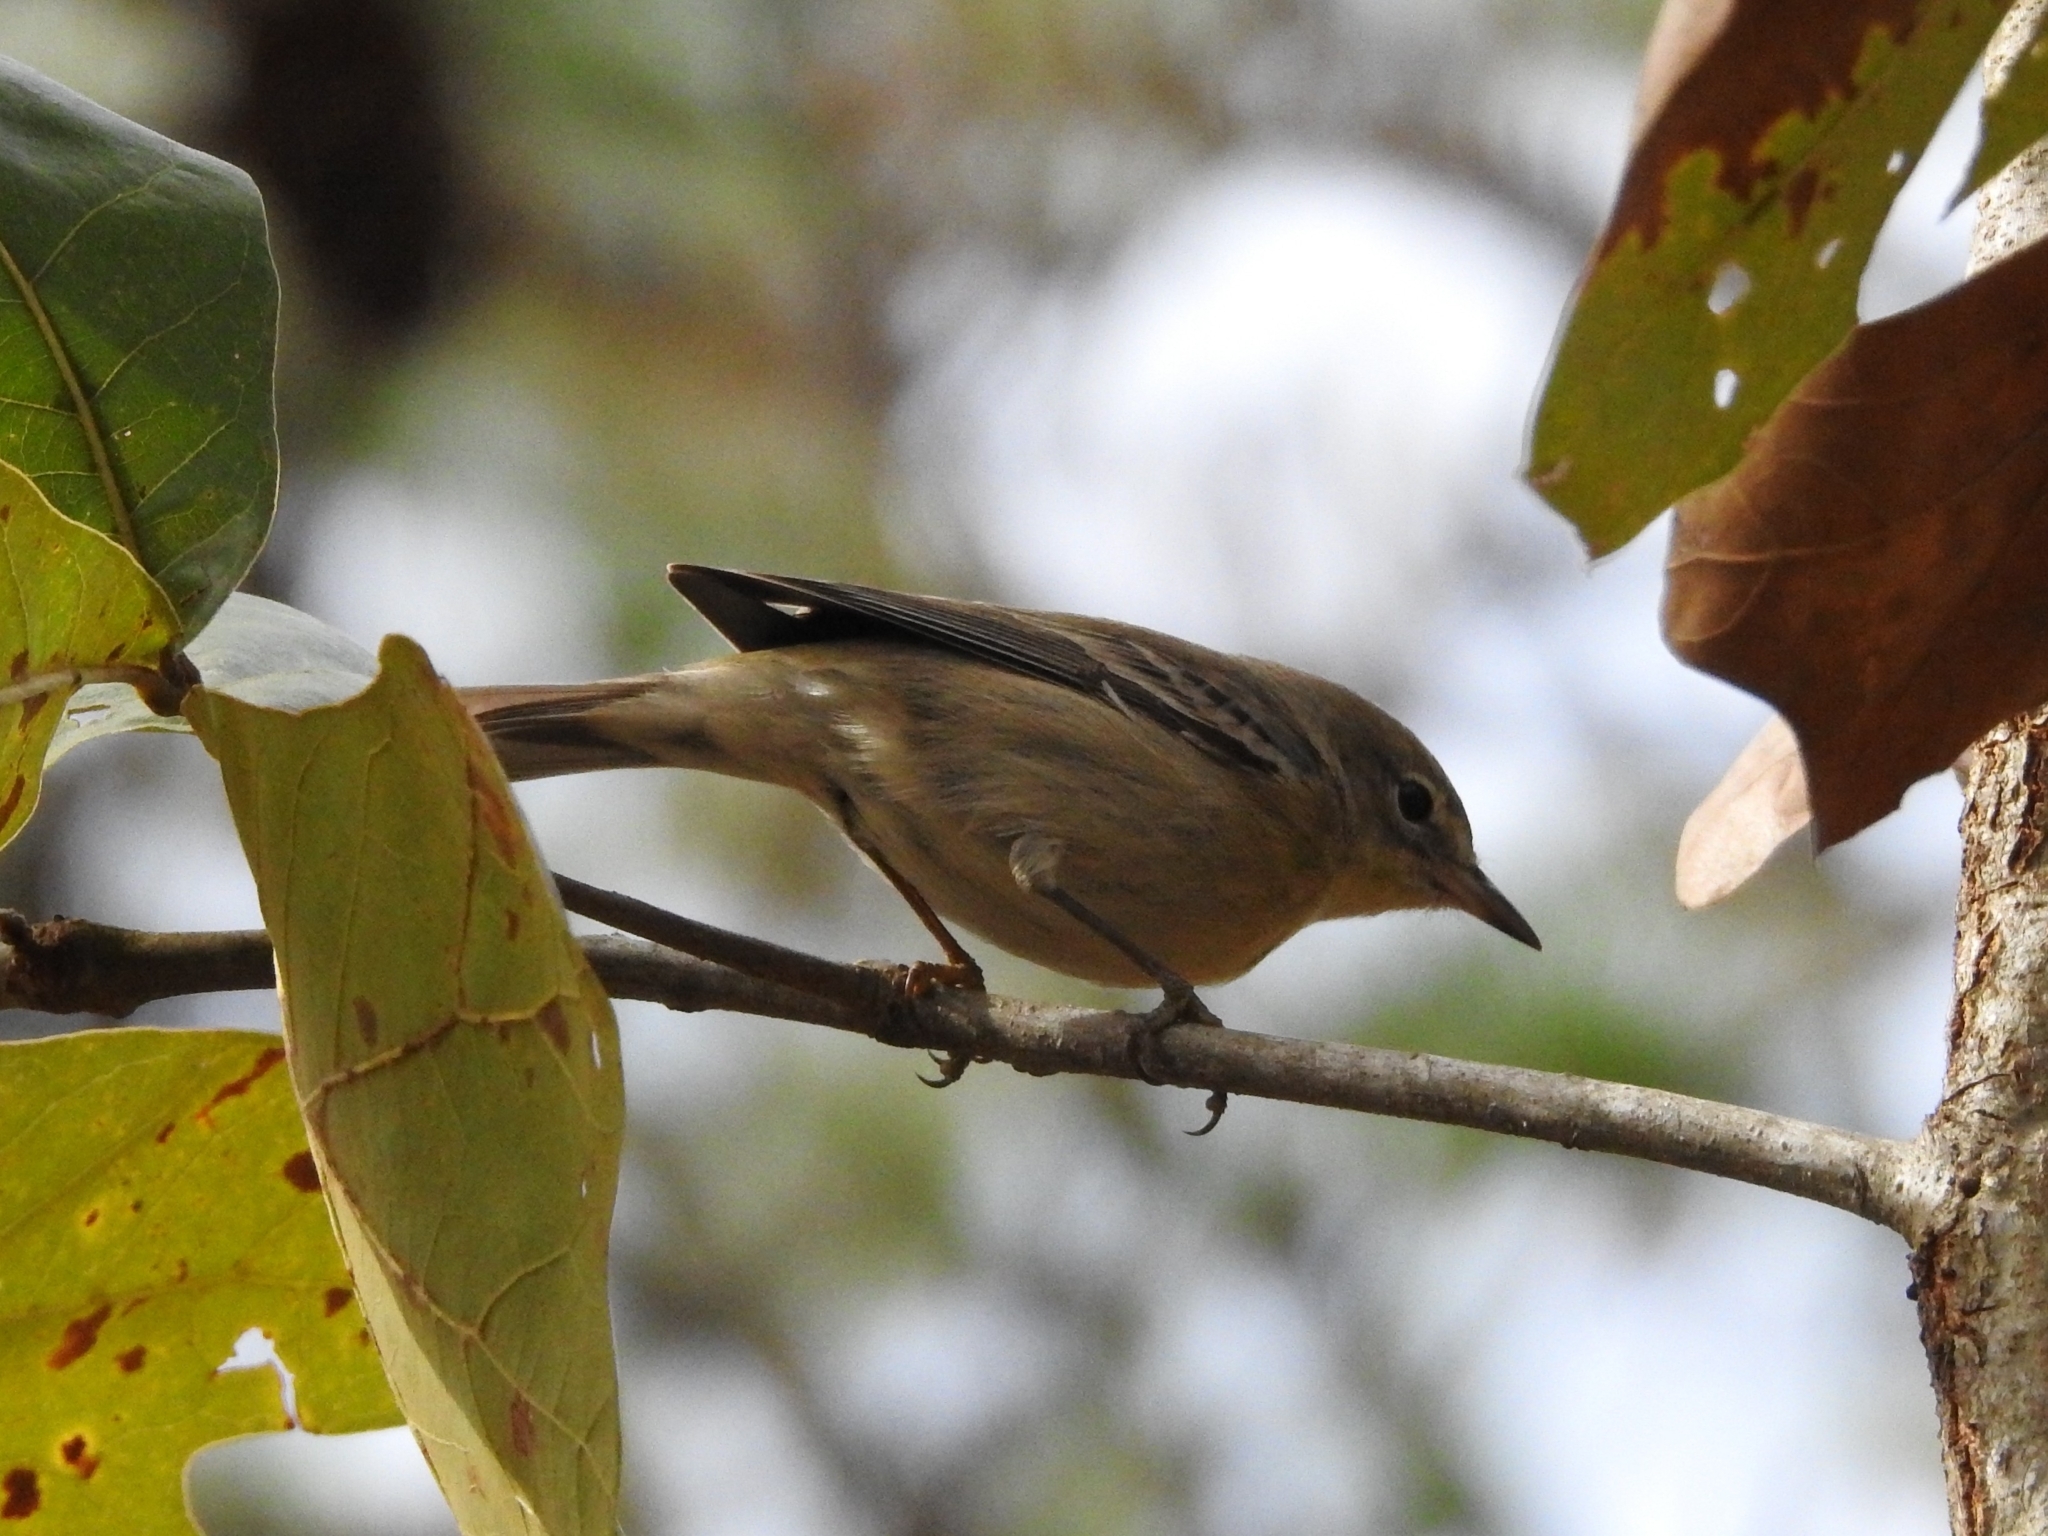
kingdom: Animalia
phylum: Chordata
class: Aves
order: Passeriformes
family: Parulidae
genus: Setophaga
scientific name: Setophaga pinus
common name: Pine warbler
